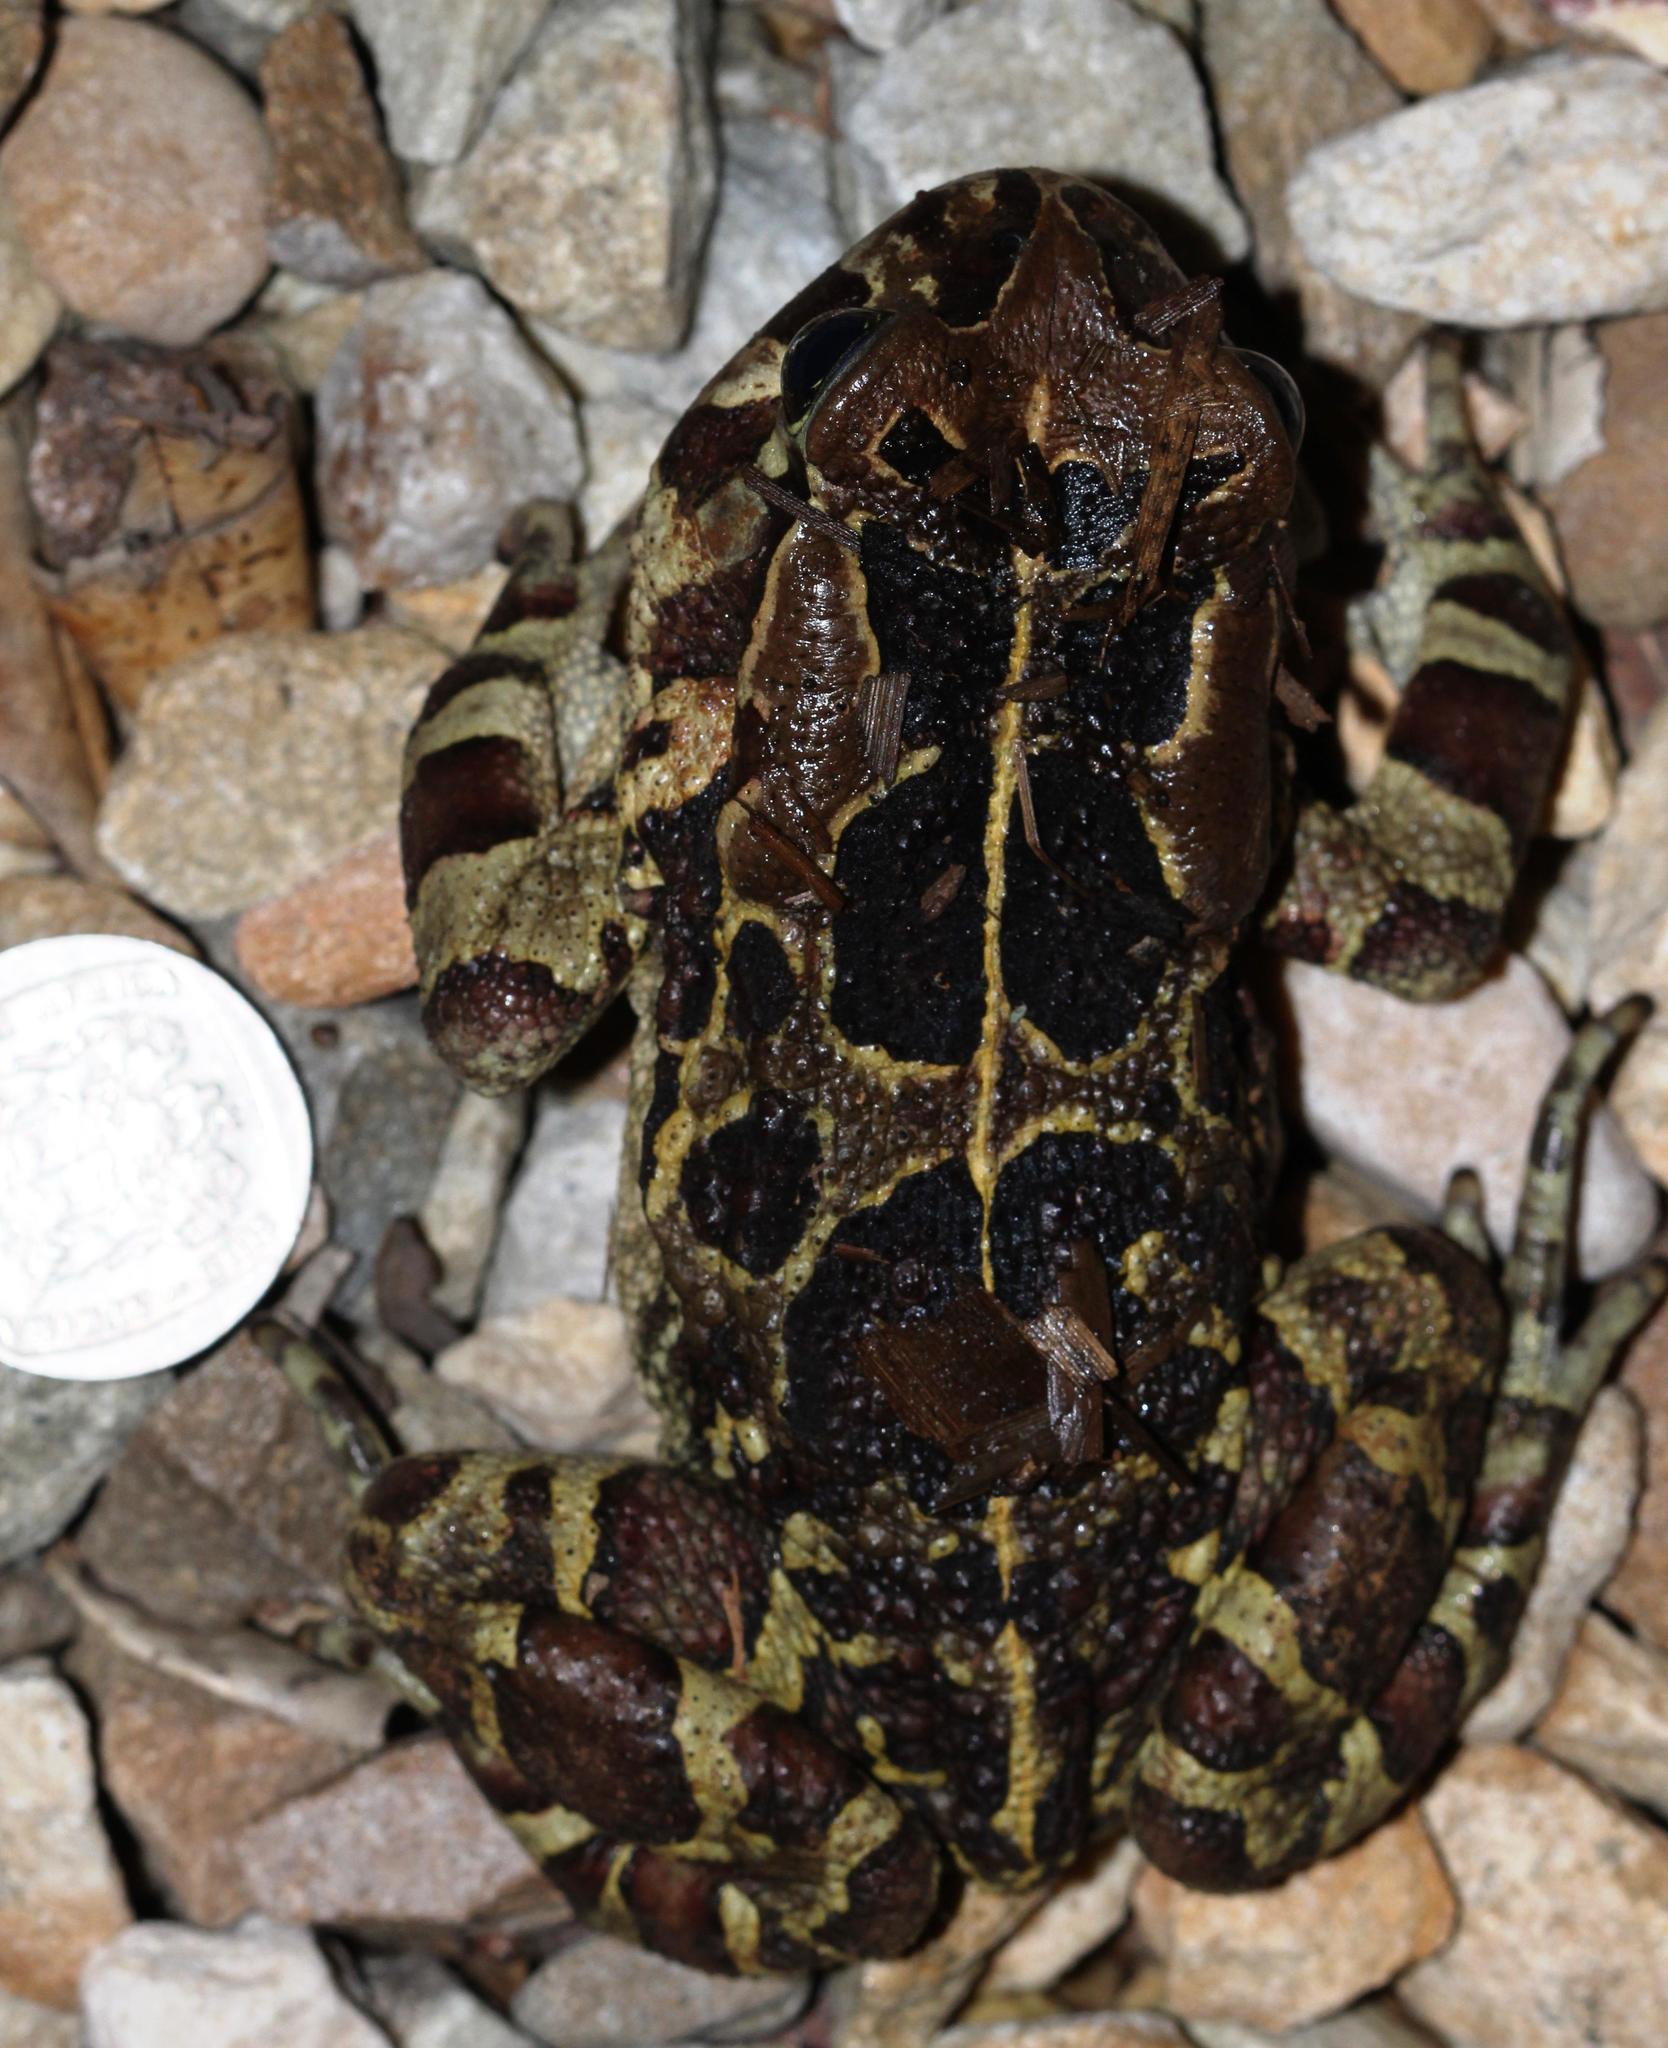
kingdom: Animalia
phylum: Chordata
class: Amphibia
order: Anura
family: Bufonidae
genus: Sclerophrys
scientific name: Sclerophrys pantherina
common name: Panther toad
